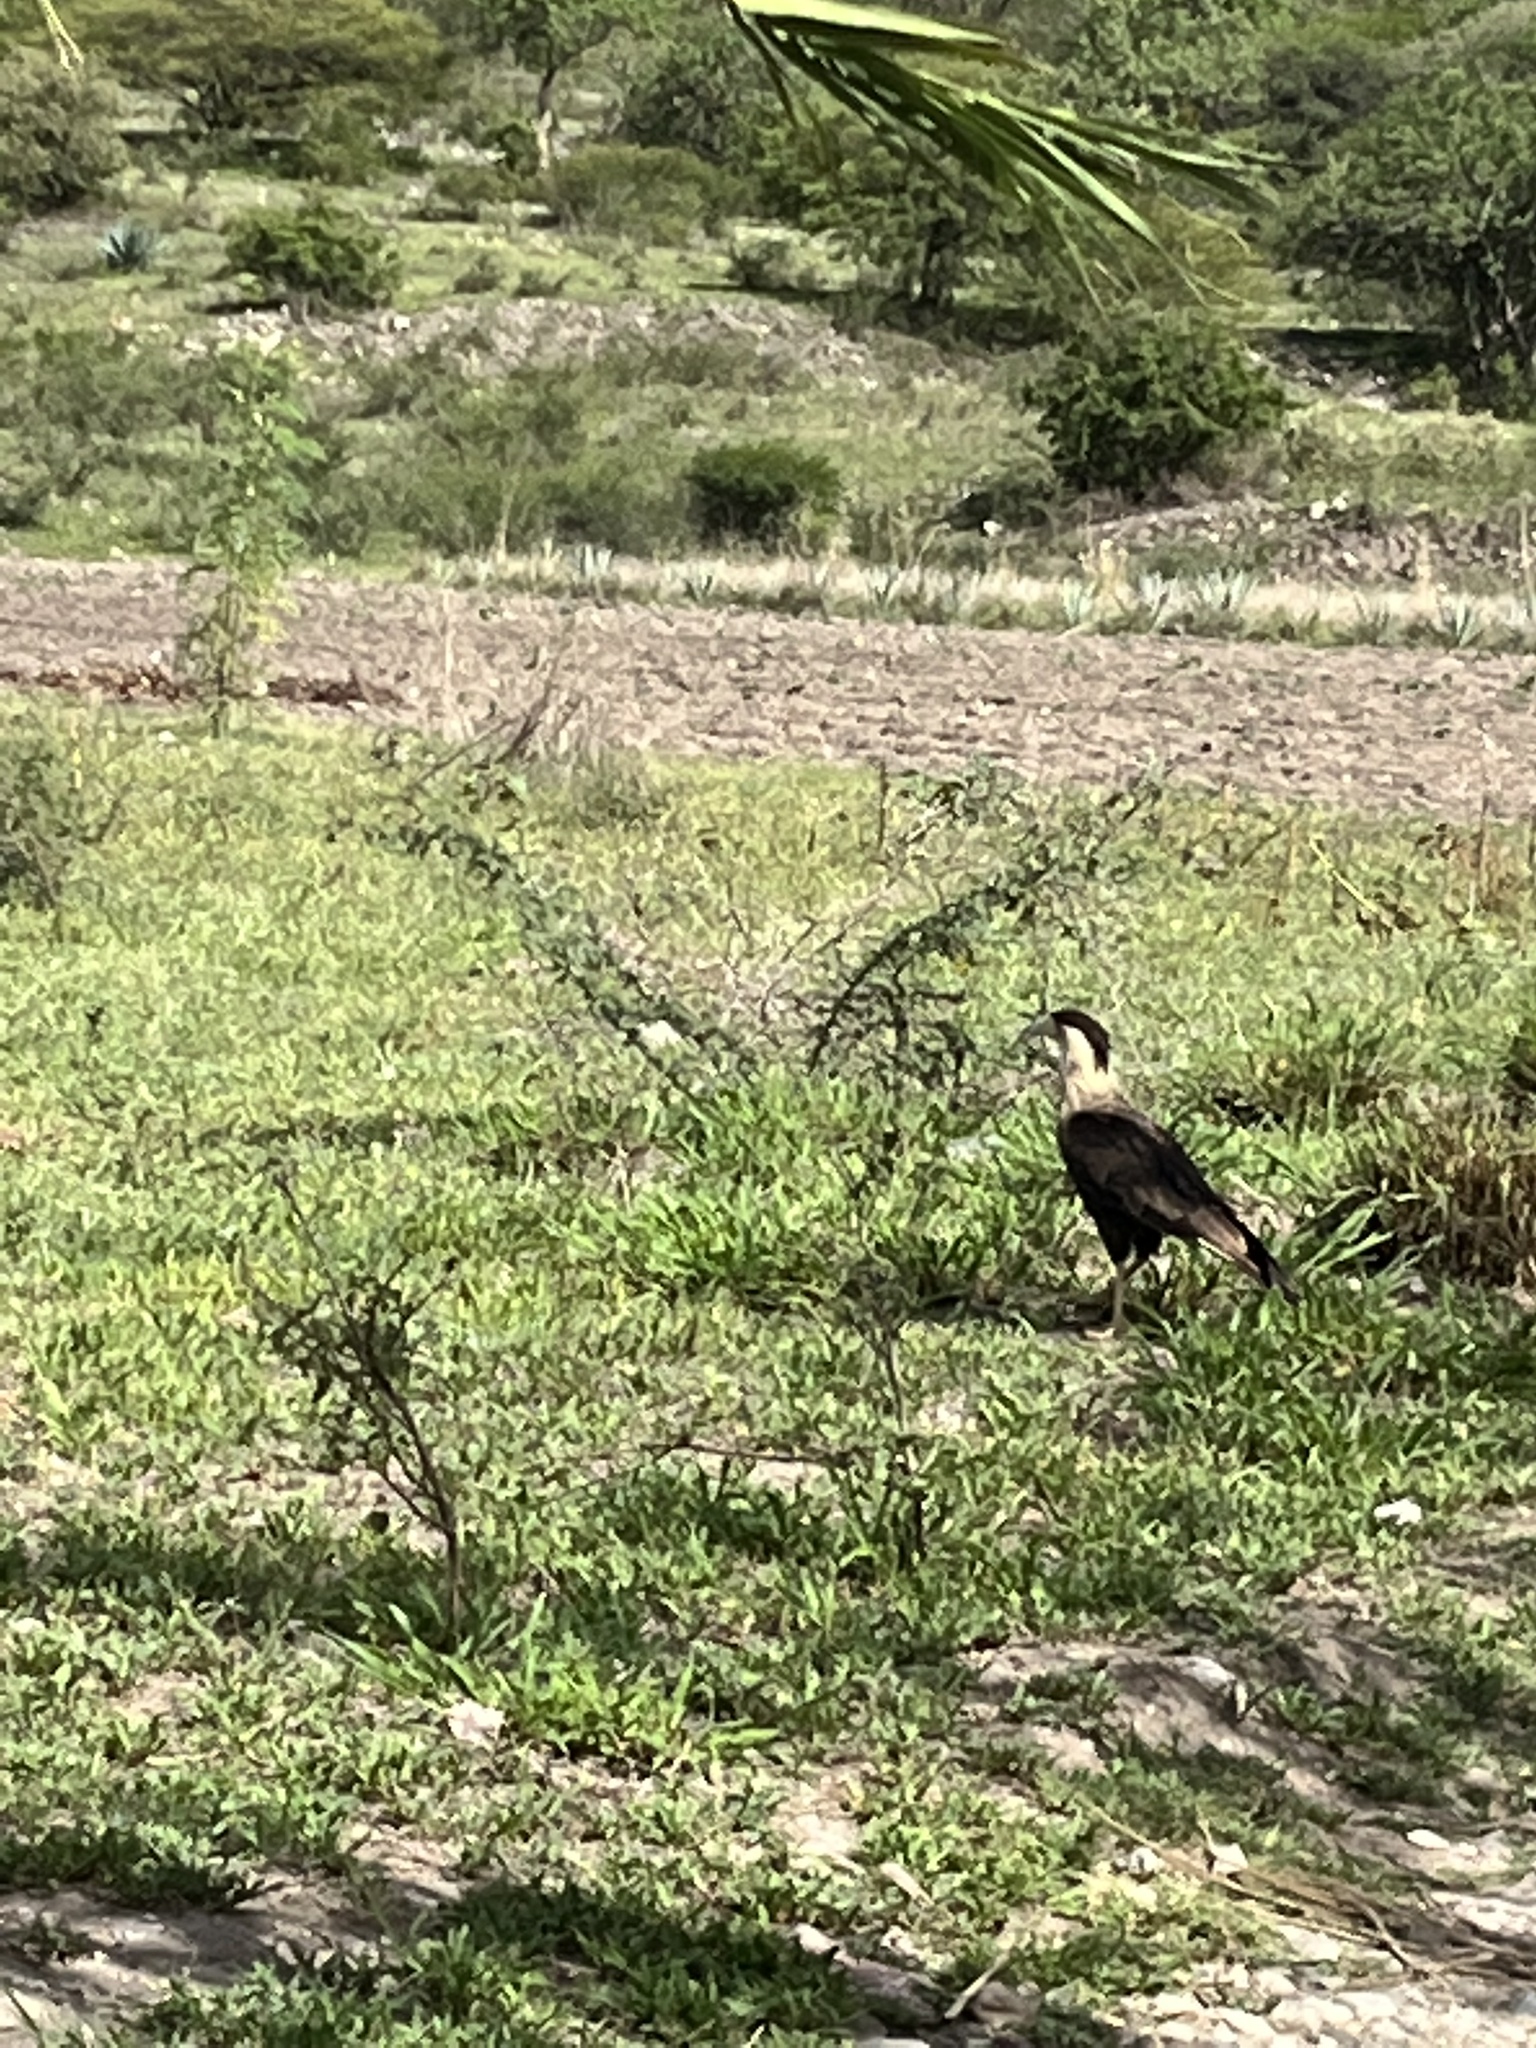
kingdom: Animalia
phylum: Chordata
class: Aves
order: Falconiformes
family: Falconidae
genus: Caracara
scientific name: Caracara plancus
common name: Southern caracara
